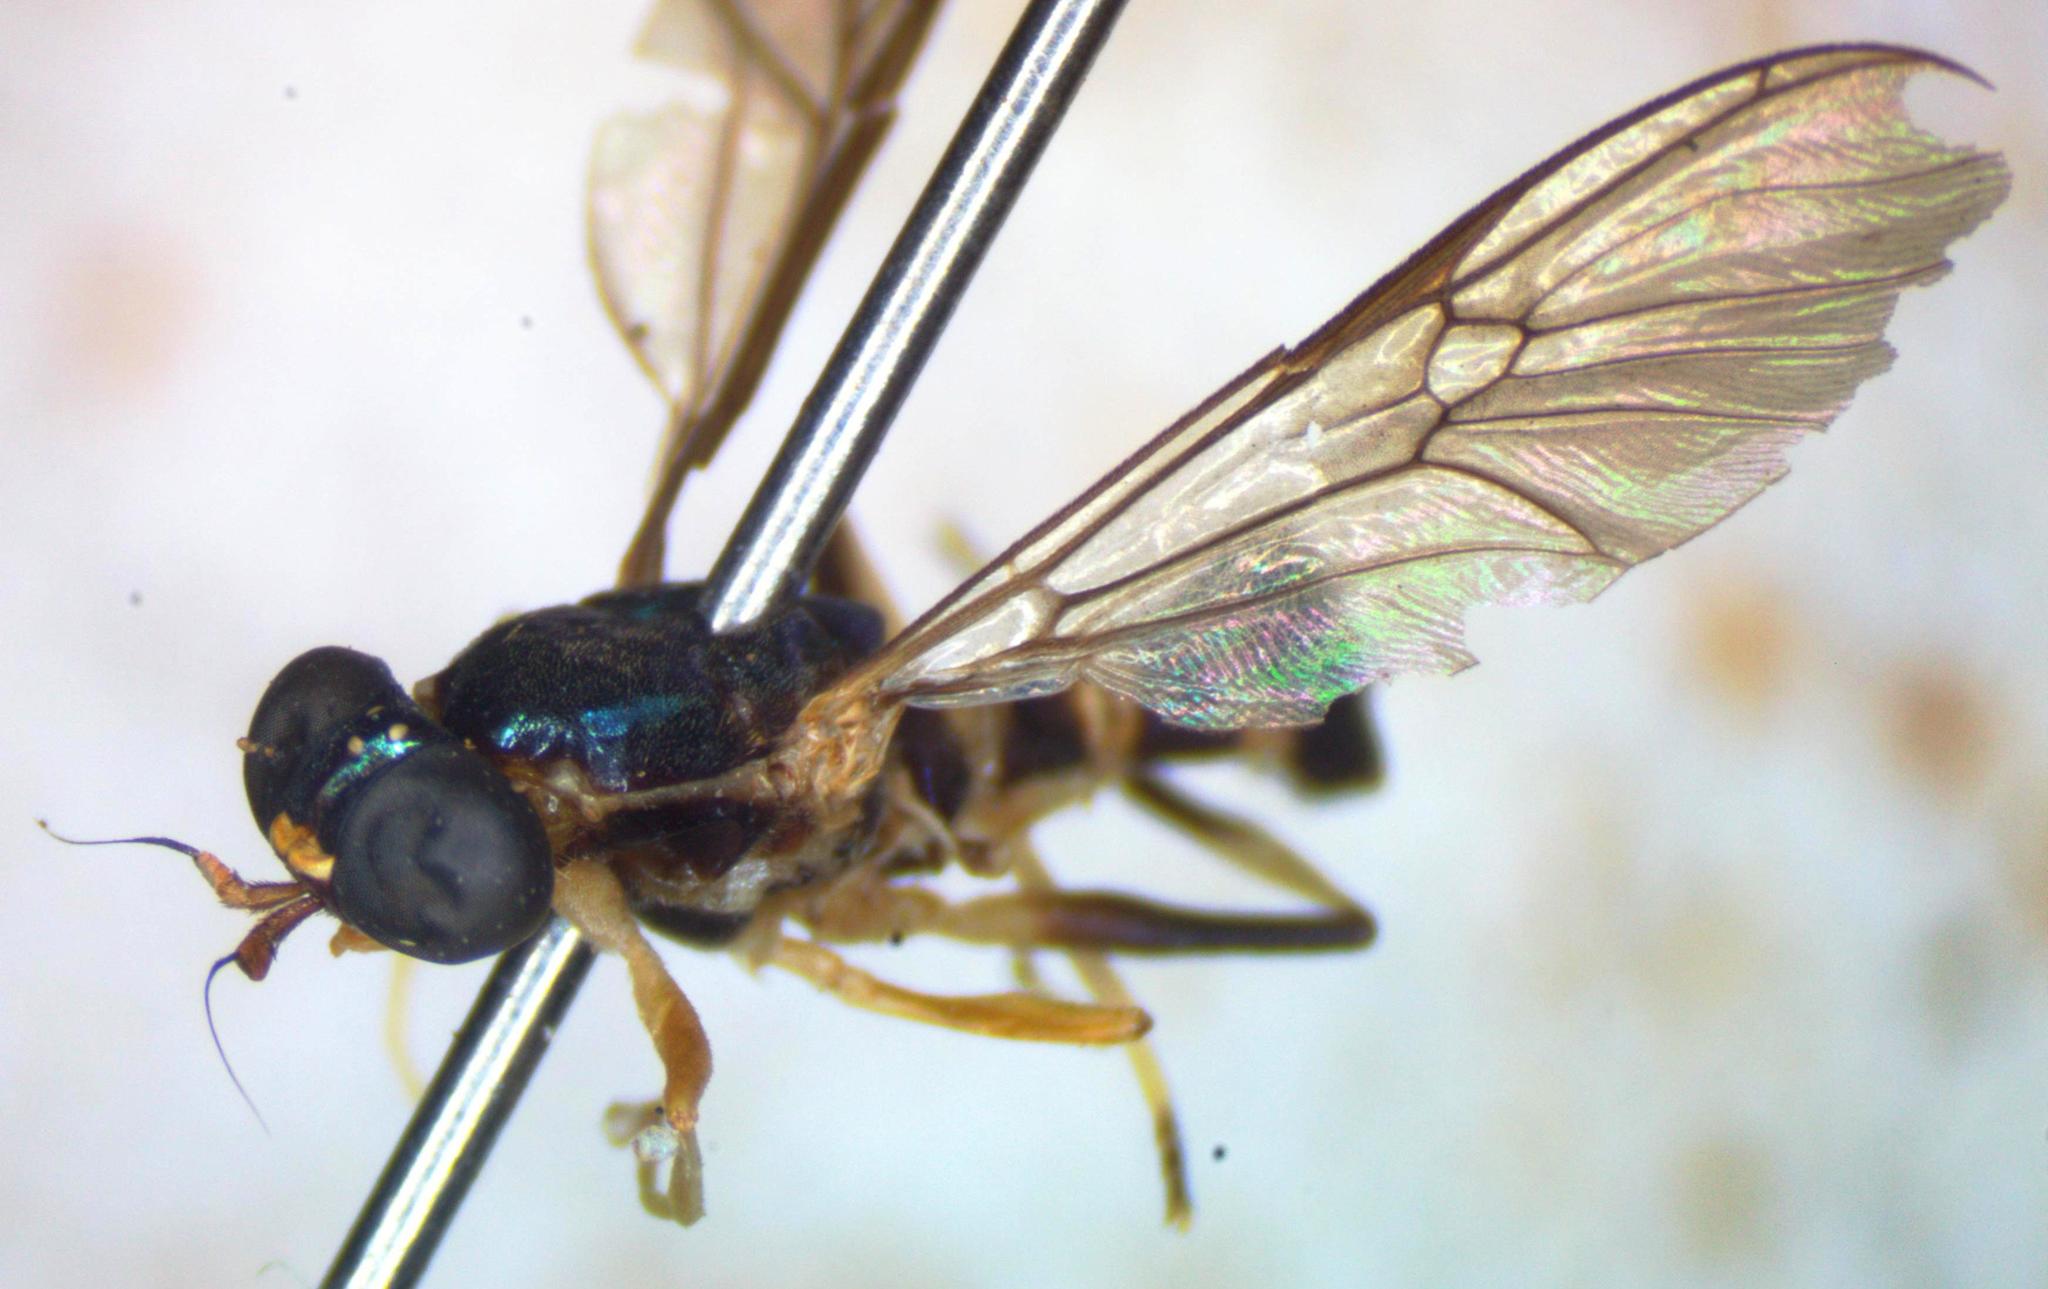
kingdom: Animalia
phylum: Arthropoda
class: Insecta
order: Diptera
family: Stratiomyidae
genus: Merosargus
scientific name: Merosargus cingulatus
